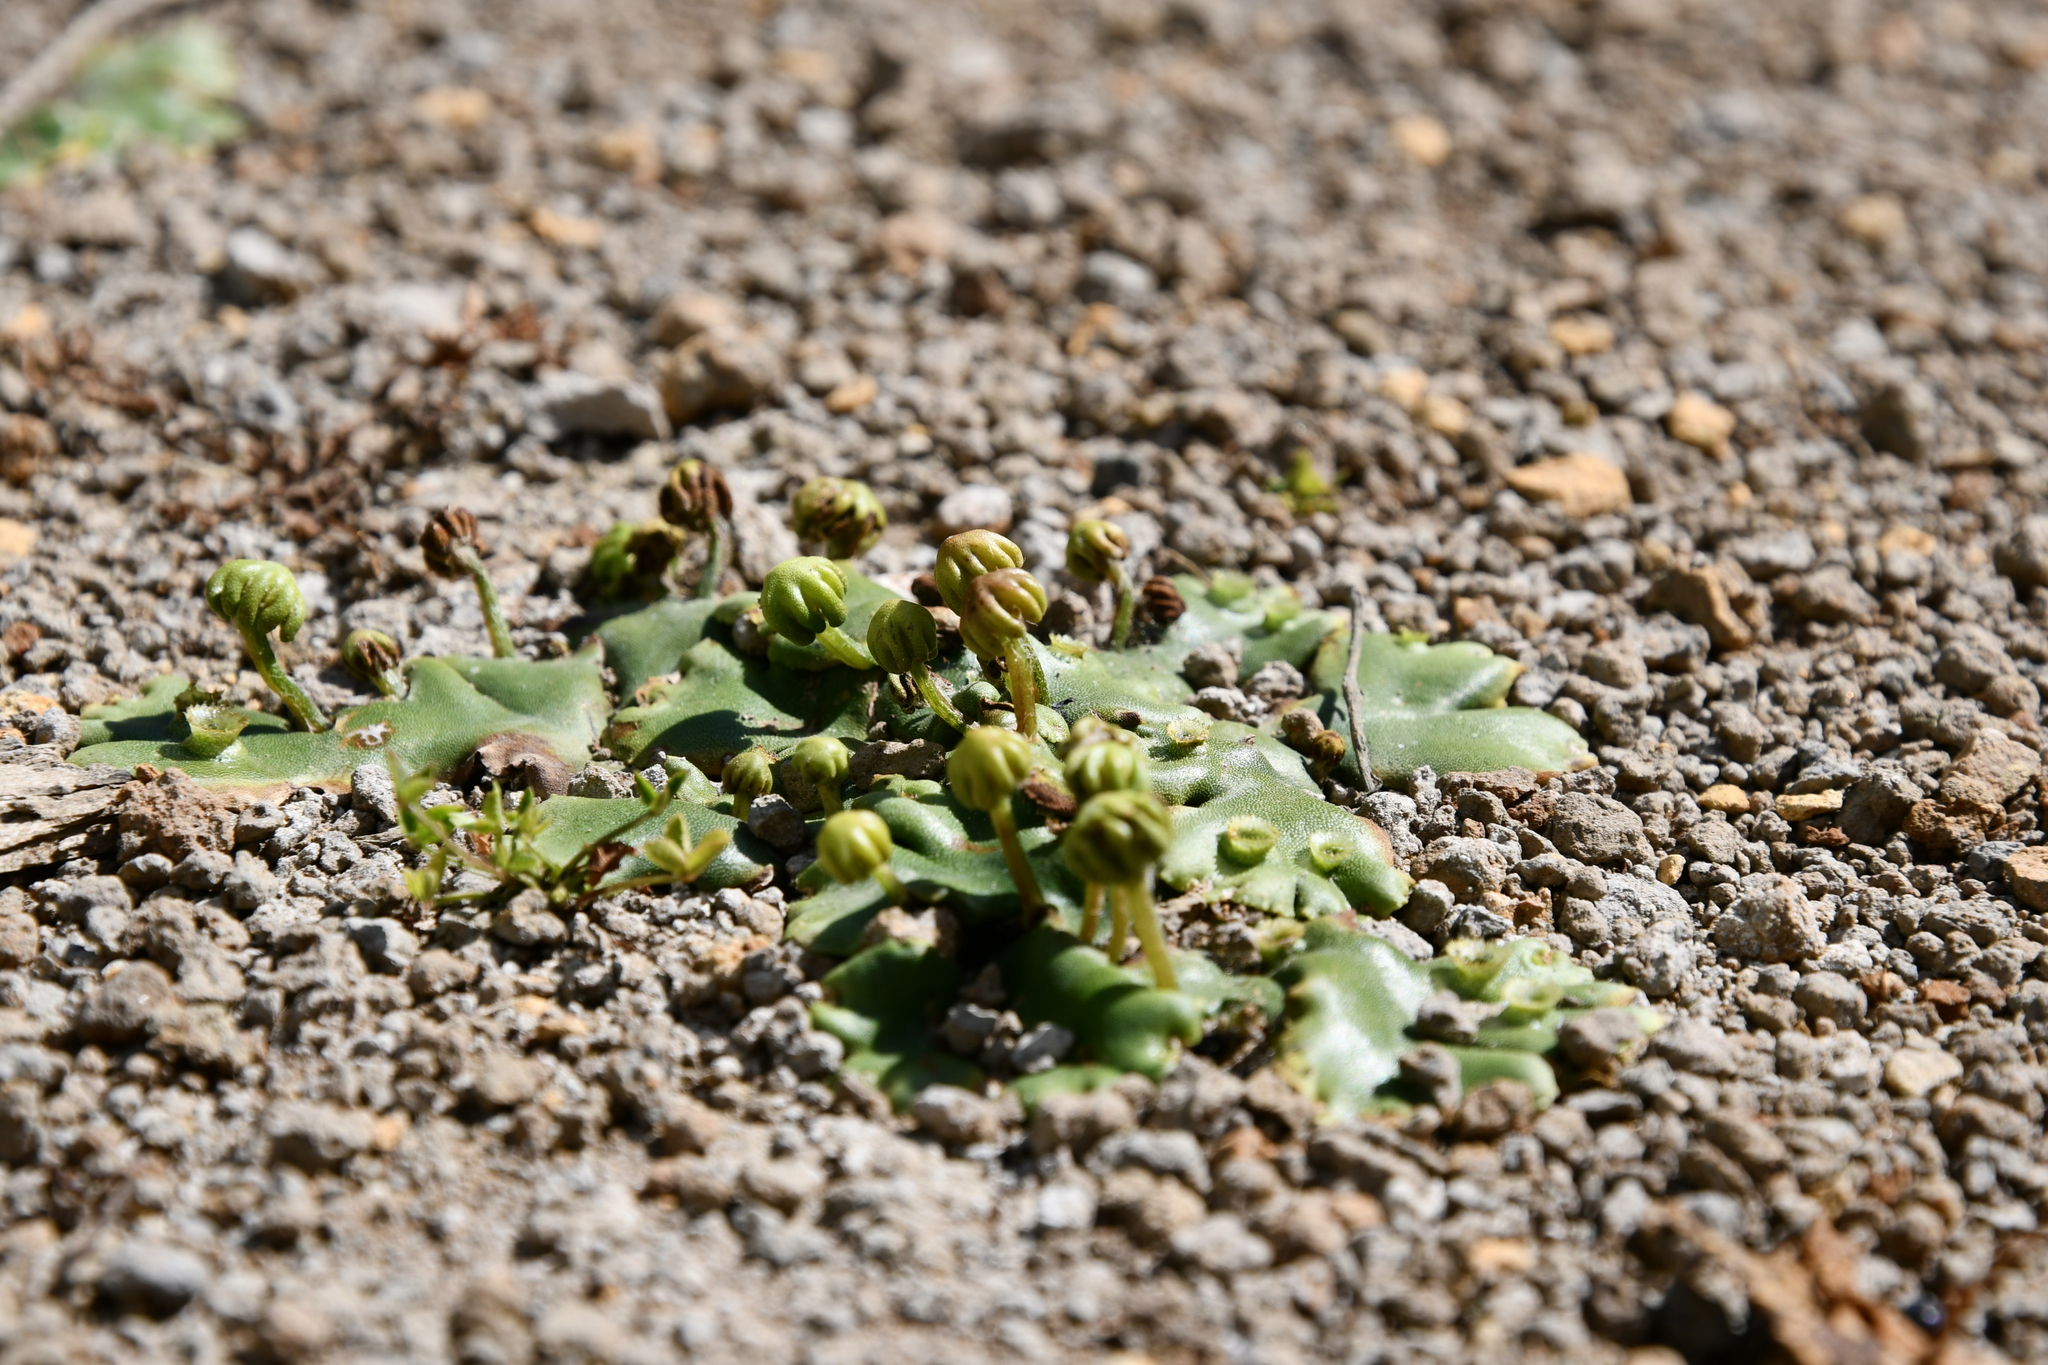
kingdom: Plantae
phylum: Marchantiophyta
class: Marchantiopsida
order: Marchantiales
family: Marchantiaceae
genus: Marchantia
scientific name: Marchantia berteroana
